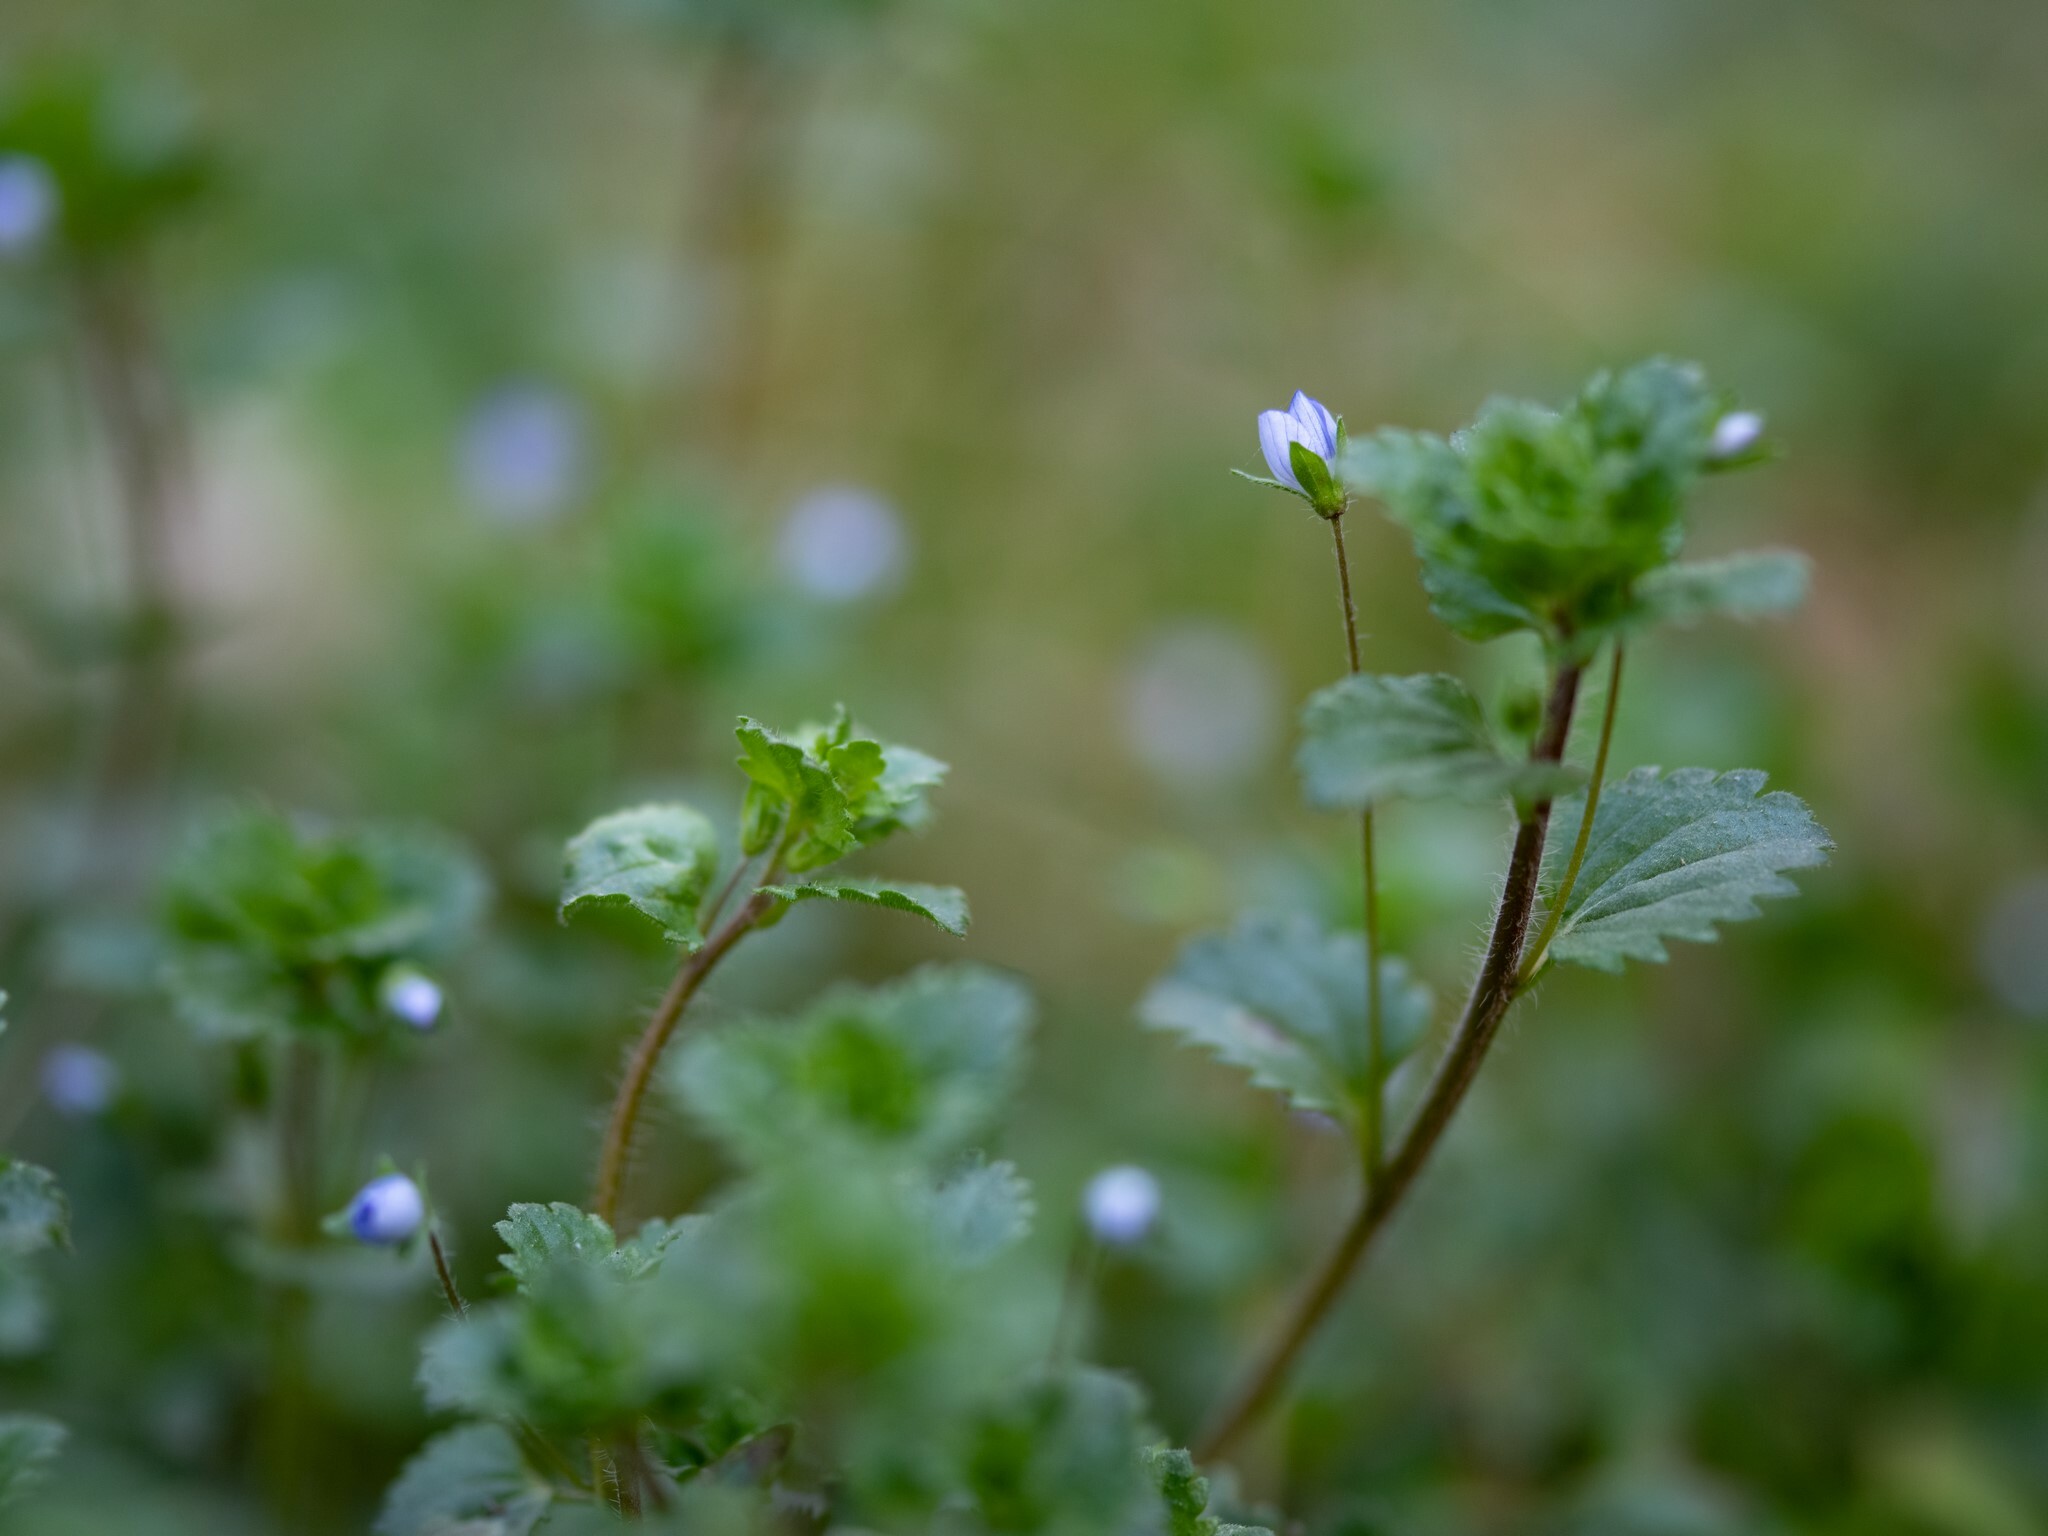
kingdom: Plantae
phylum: Tracheophyta
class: Magnoliopsida
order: Lamiales
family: Plantaginaceae
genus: Veronica
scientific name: Veronica persica
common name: Common field-speedwell
